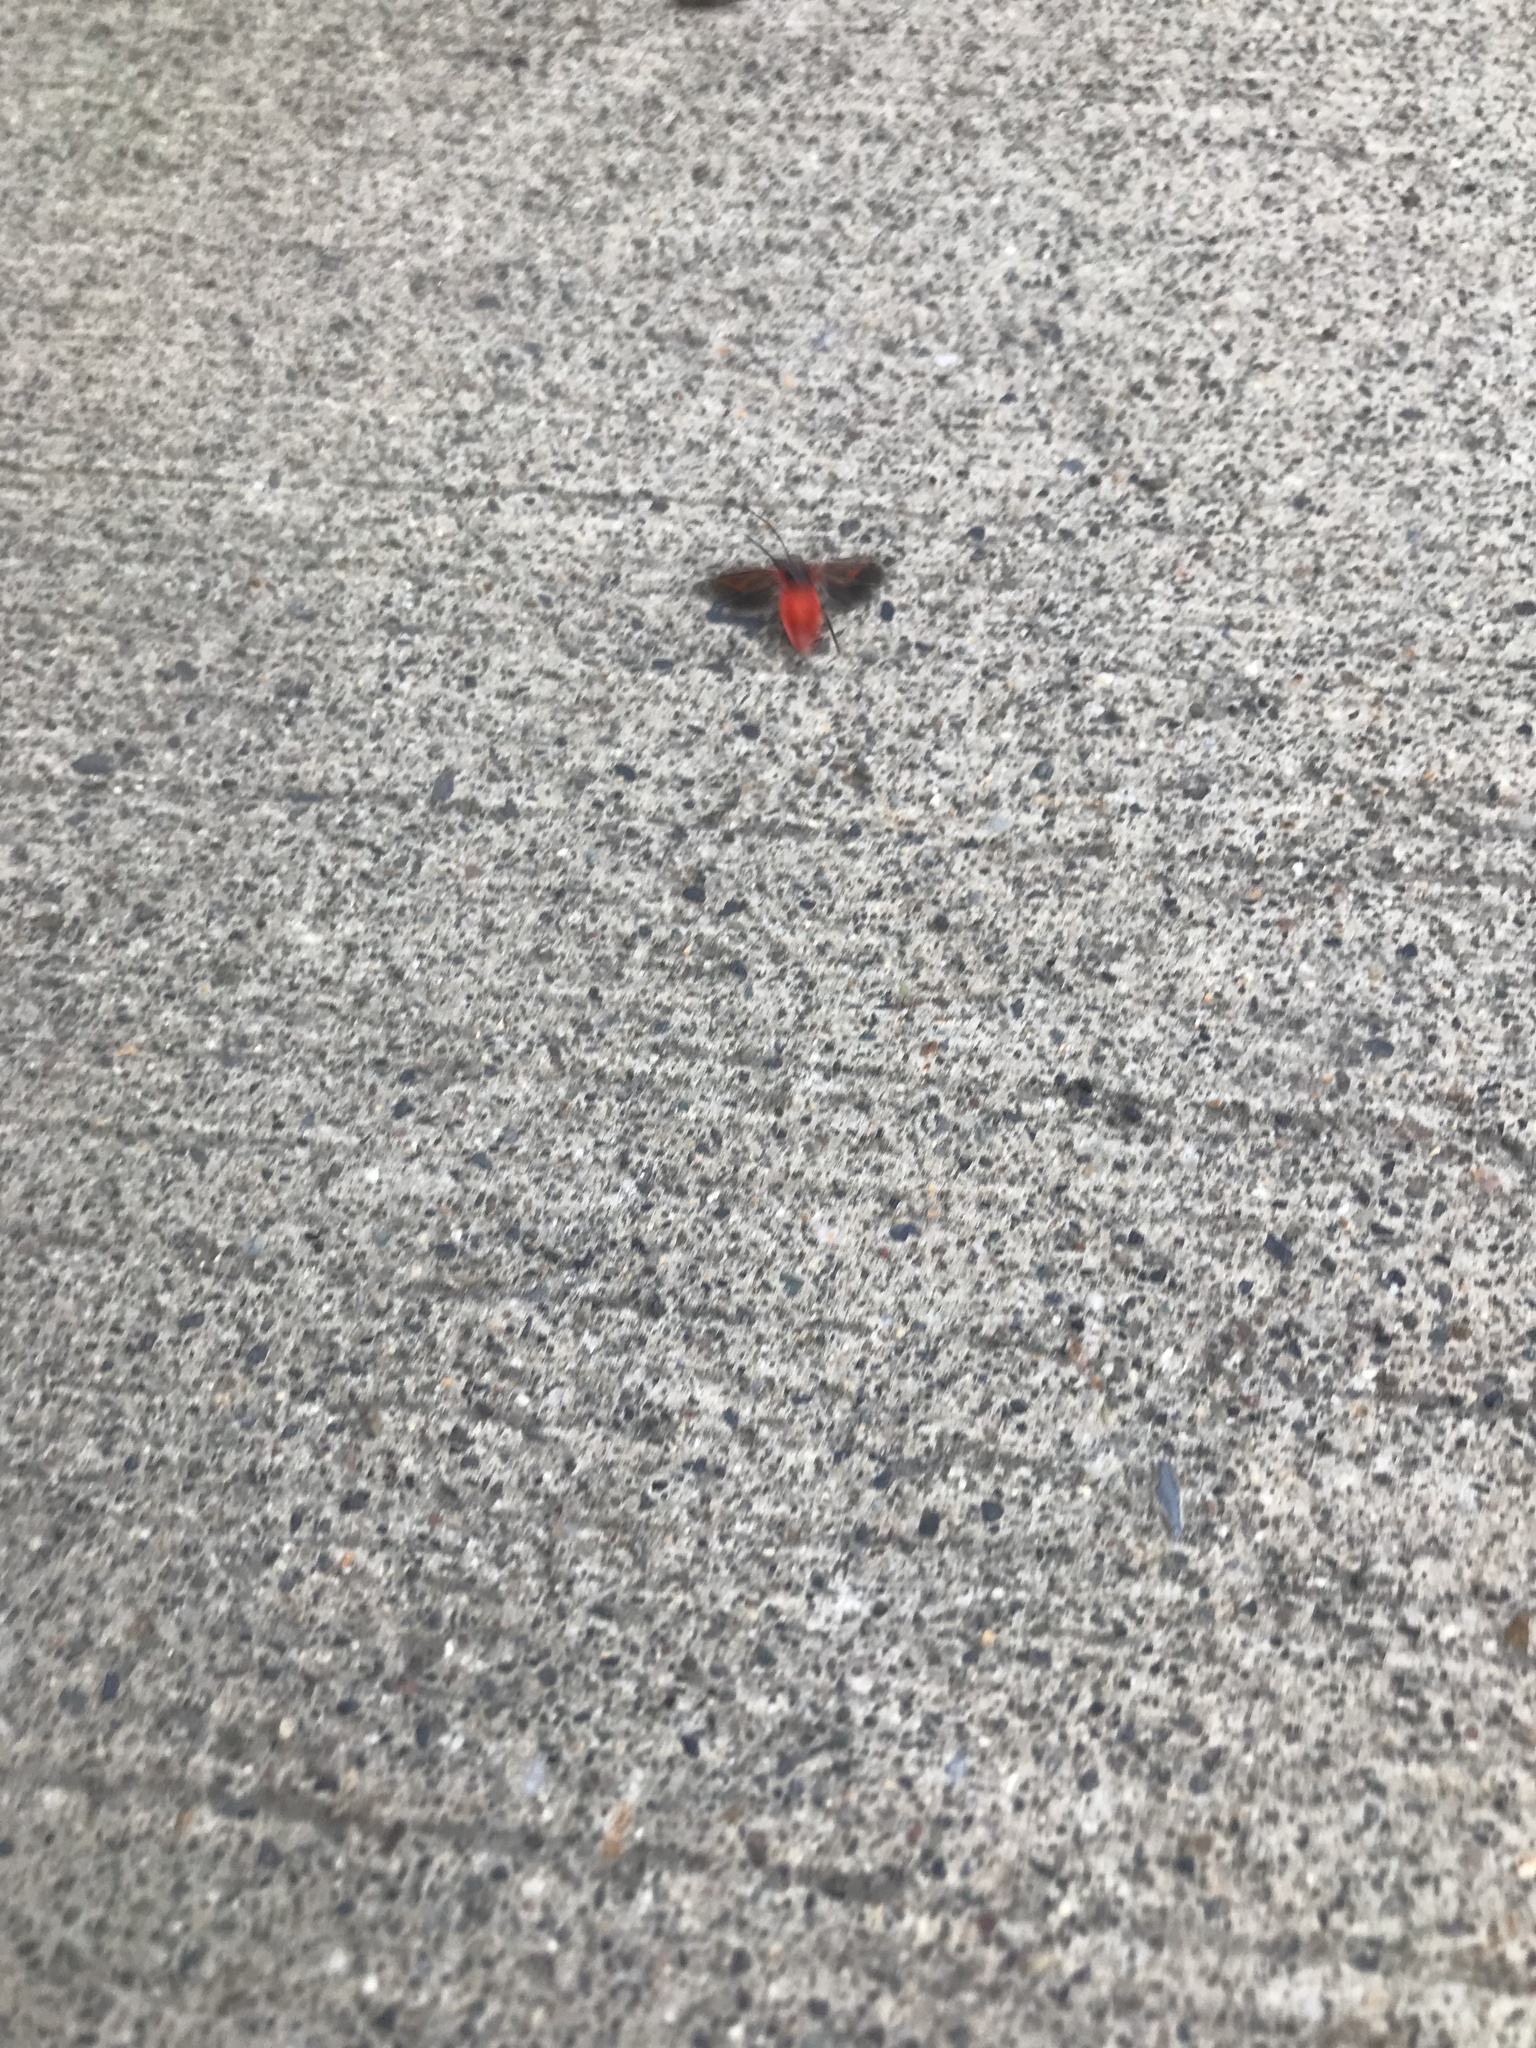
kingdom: Animalia
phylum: Arthropoda
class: Insecta
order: Hemiptera
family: Rhopalidae
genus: Boisea
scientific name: Boisea rubrolineata
